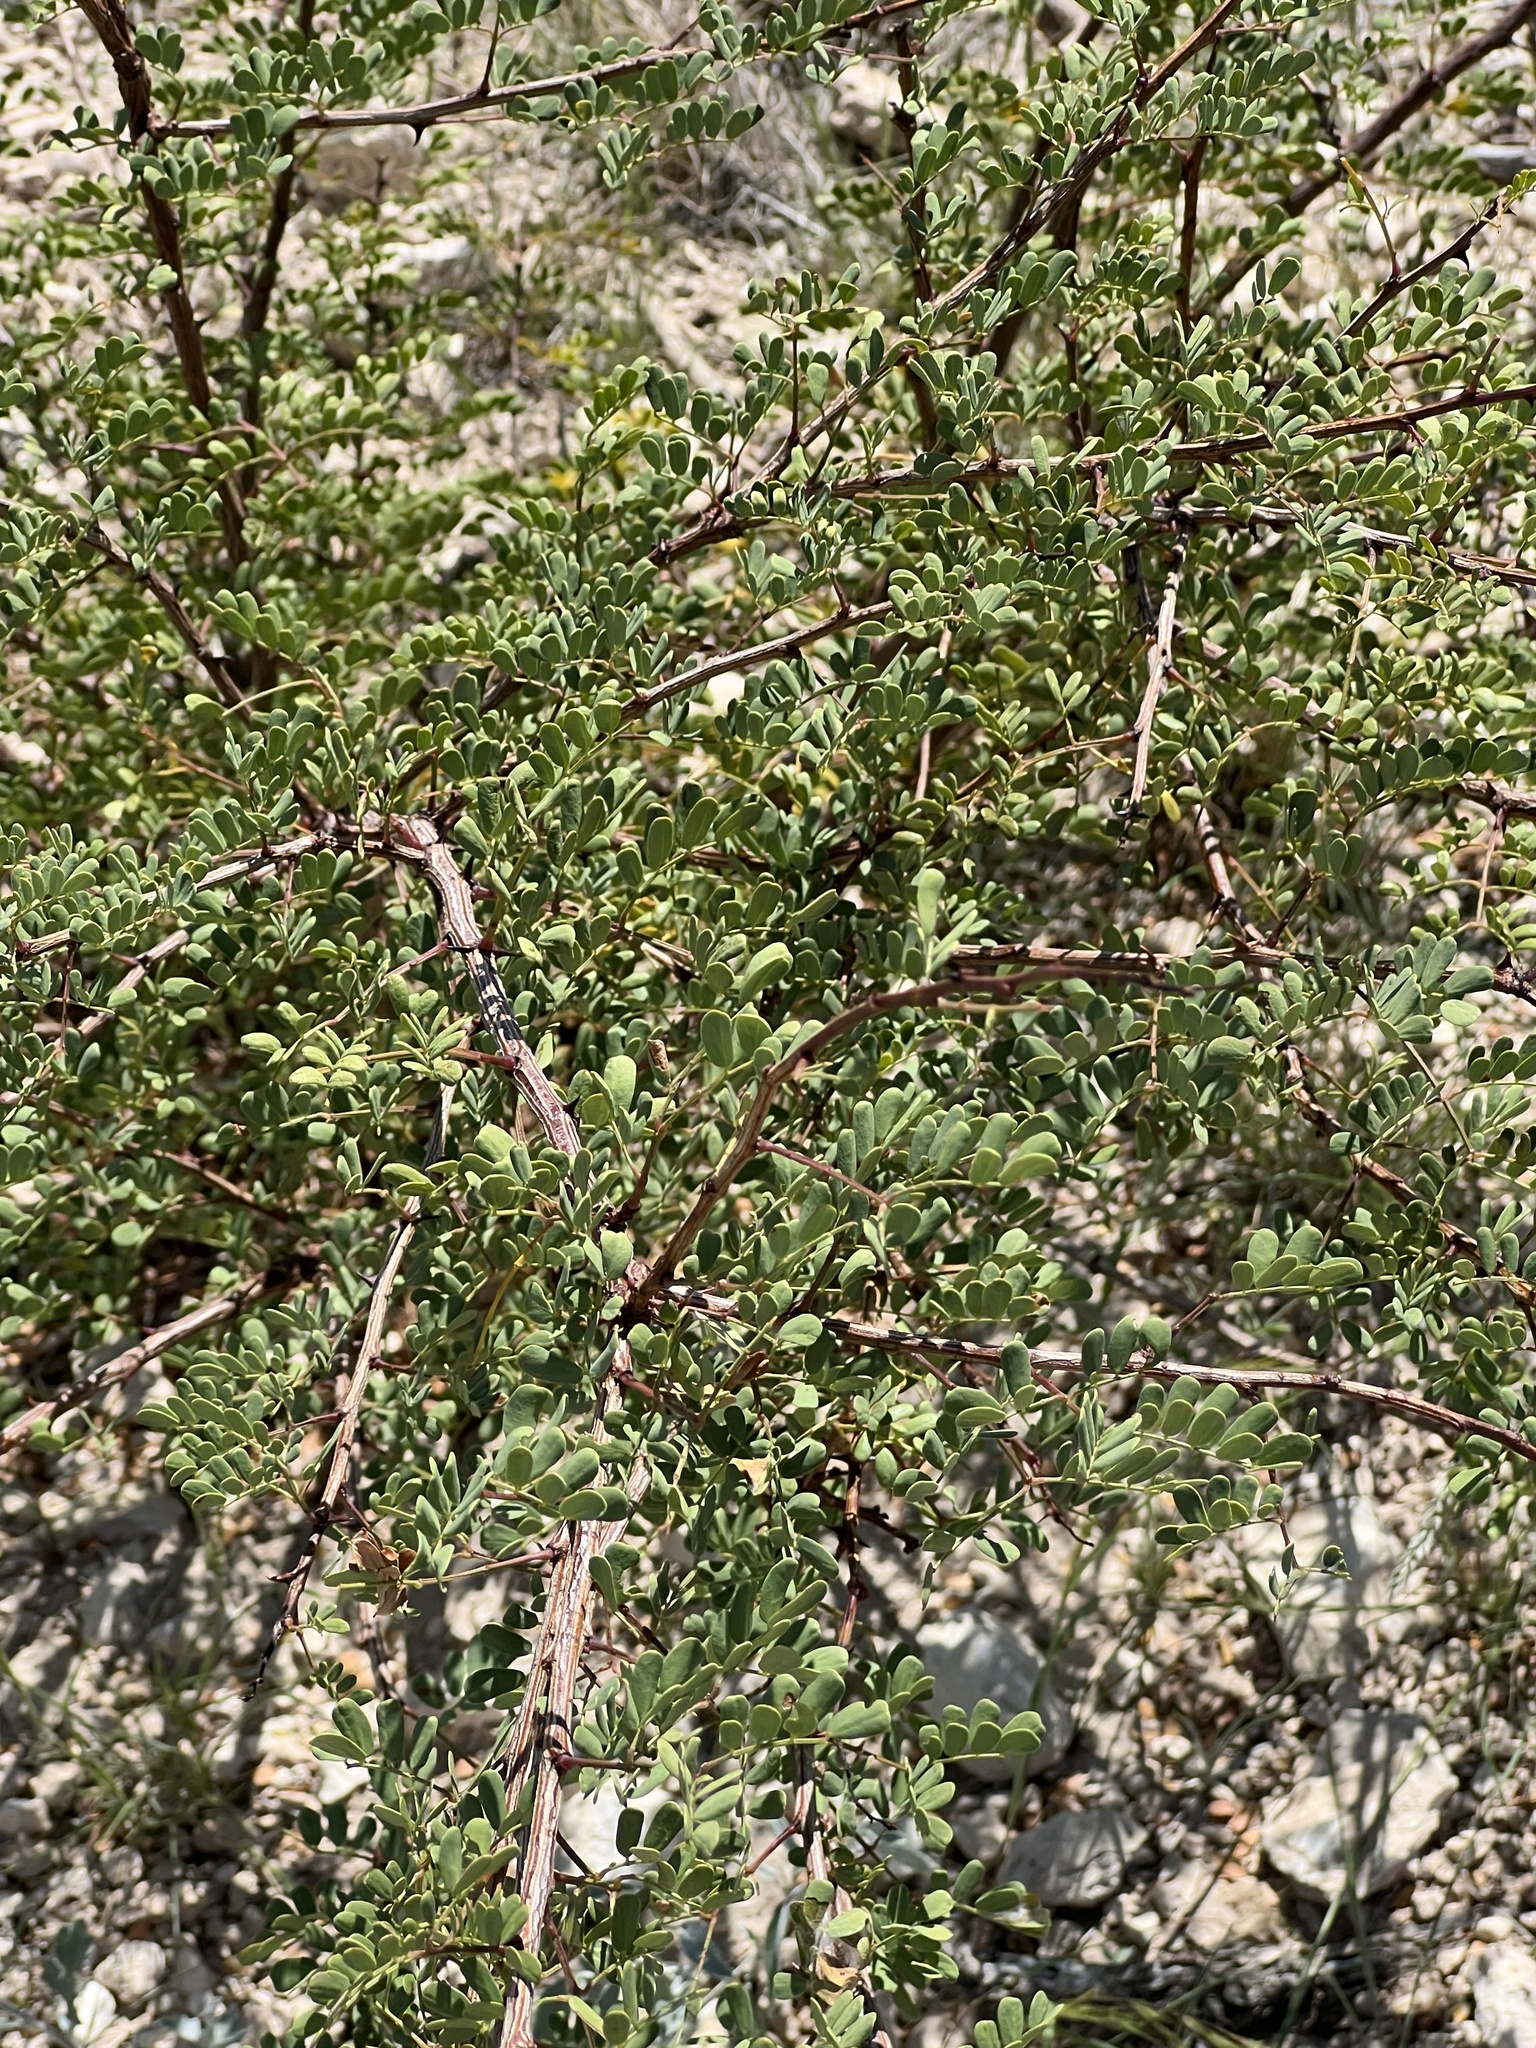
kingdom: Plantae
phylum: Tracheophyta
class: Magnoliopsida
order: Fabales
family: Fabaceae
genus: Senegalia
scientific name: Senegalia roemeriana
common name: Roemer's acacia
